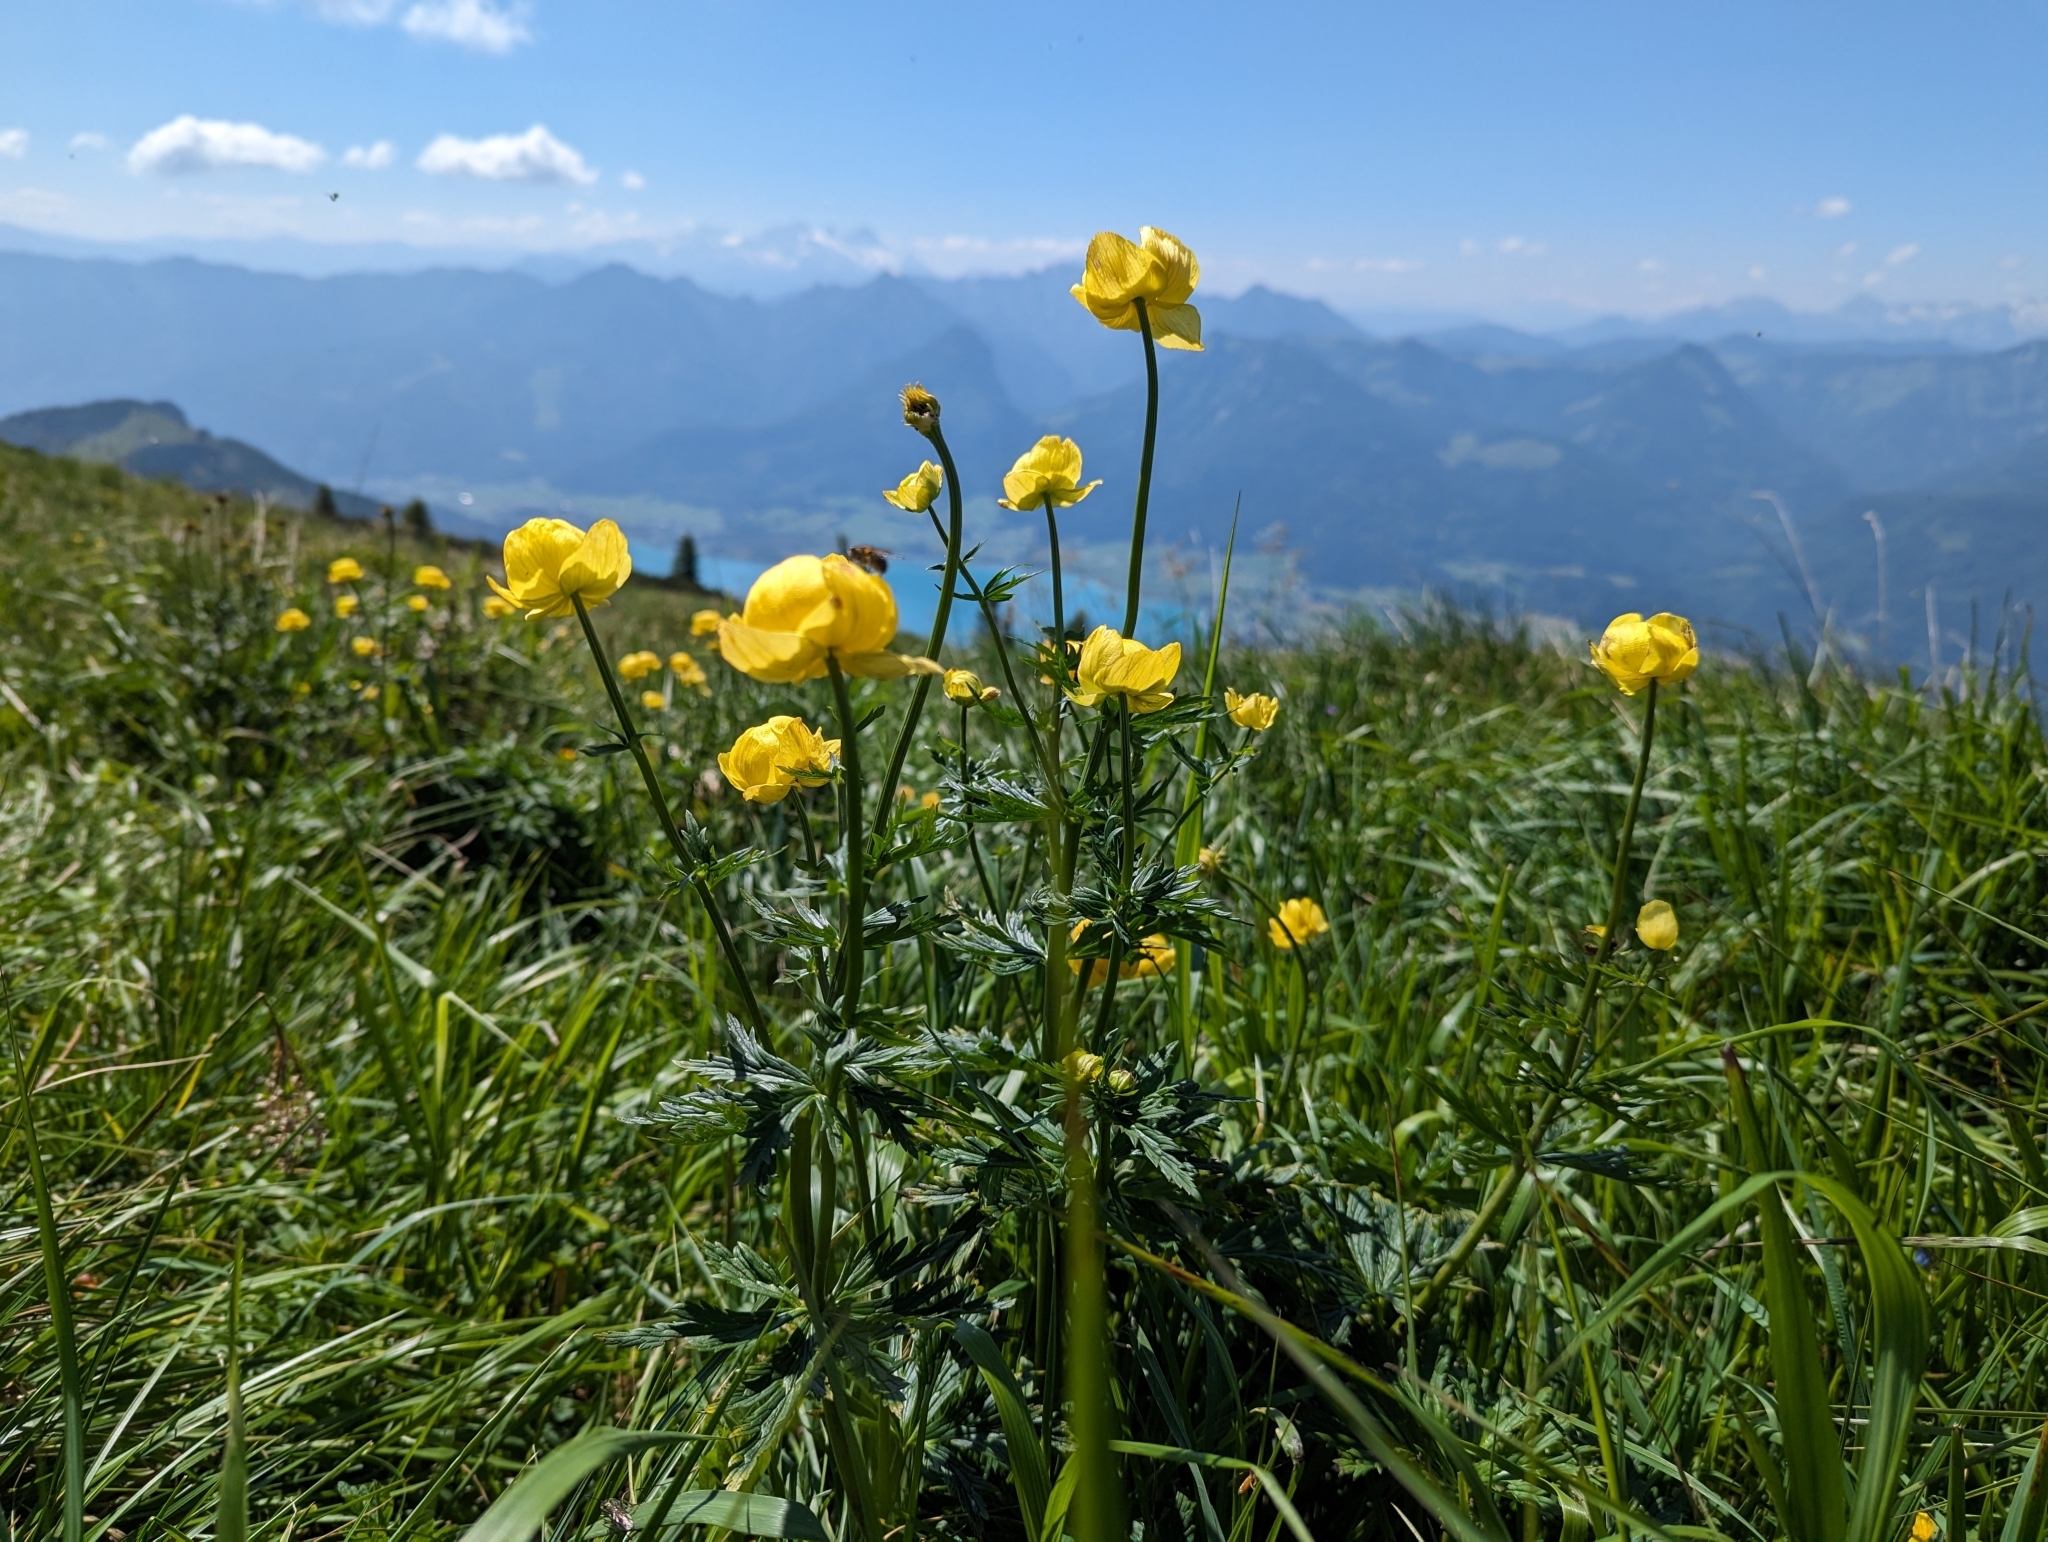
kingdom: Plantae
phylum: Tracheophyta
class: Magnoliopsida
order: Ranunculales
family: Ranunculaceae
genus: Trollius
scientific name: Trollius europaeus
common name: European globeflower
